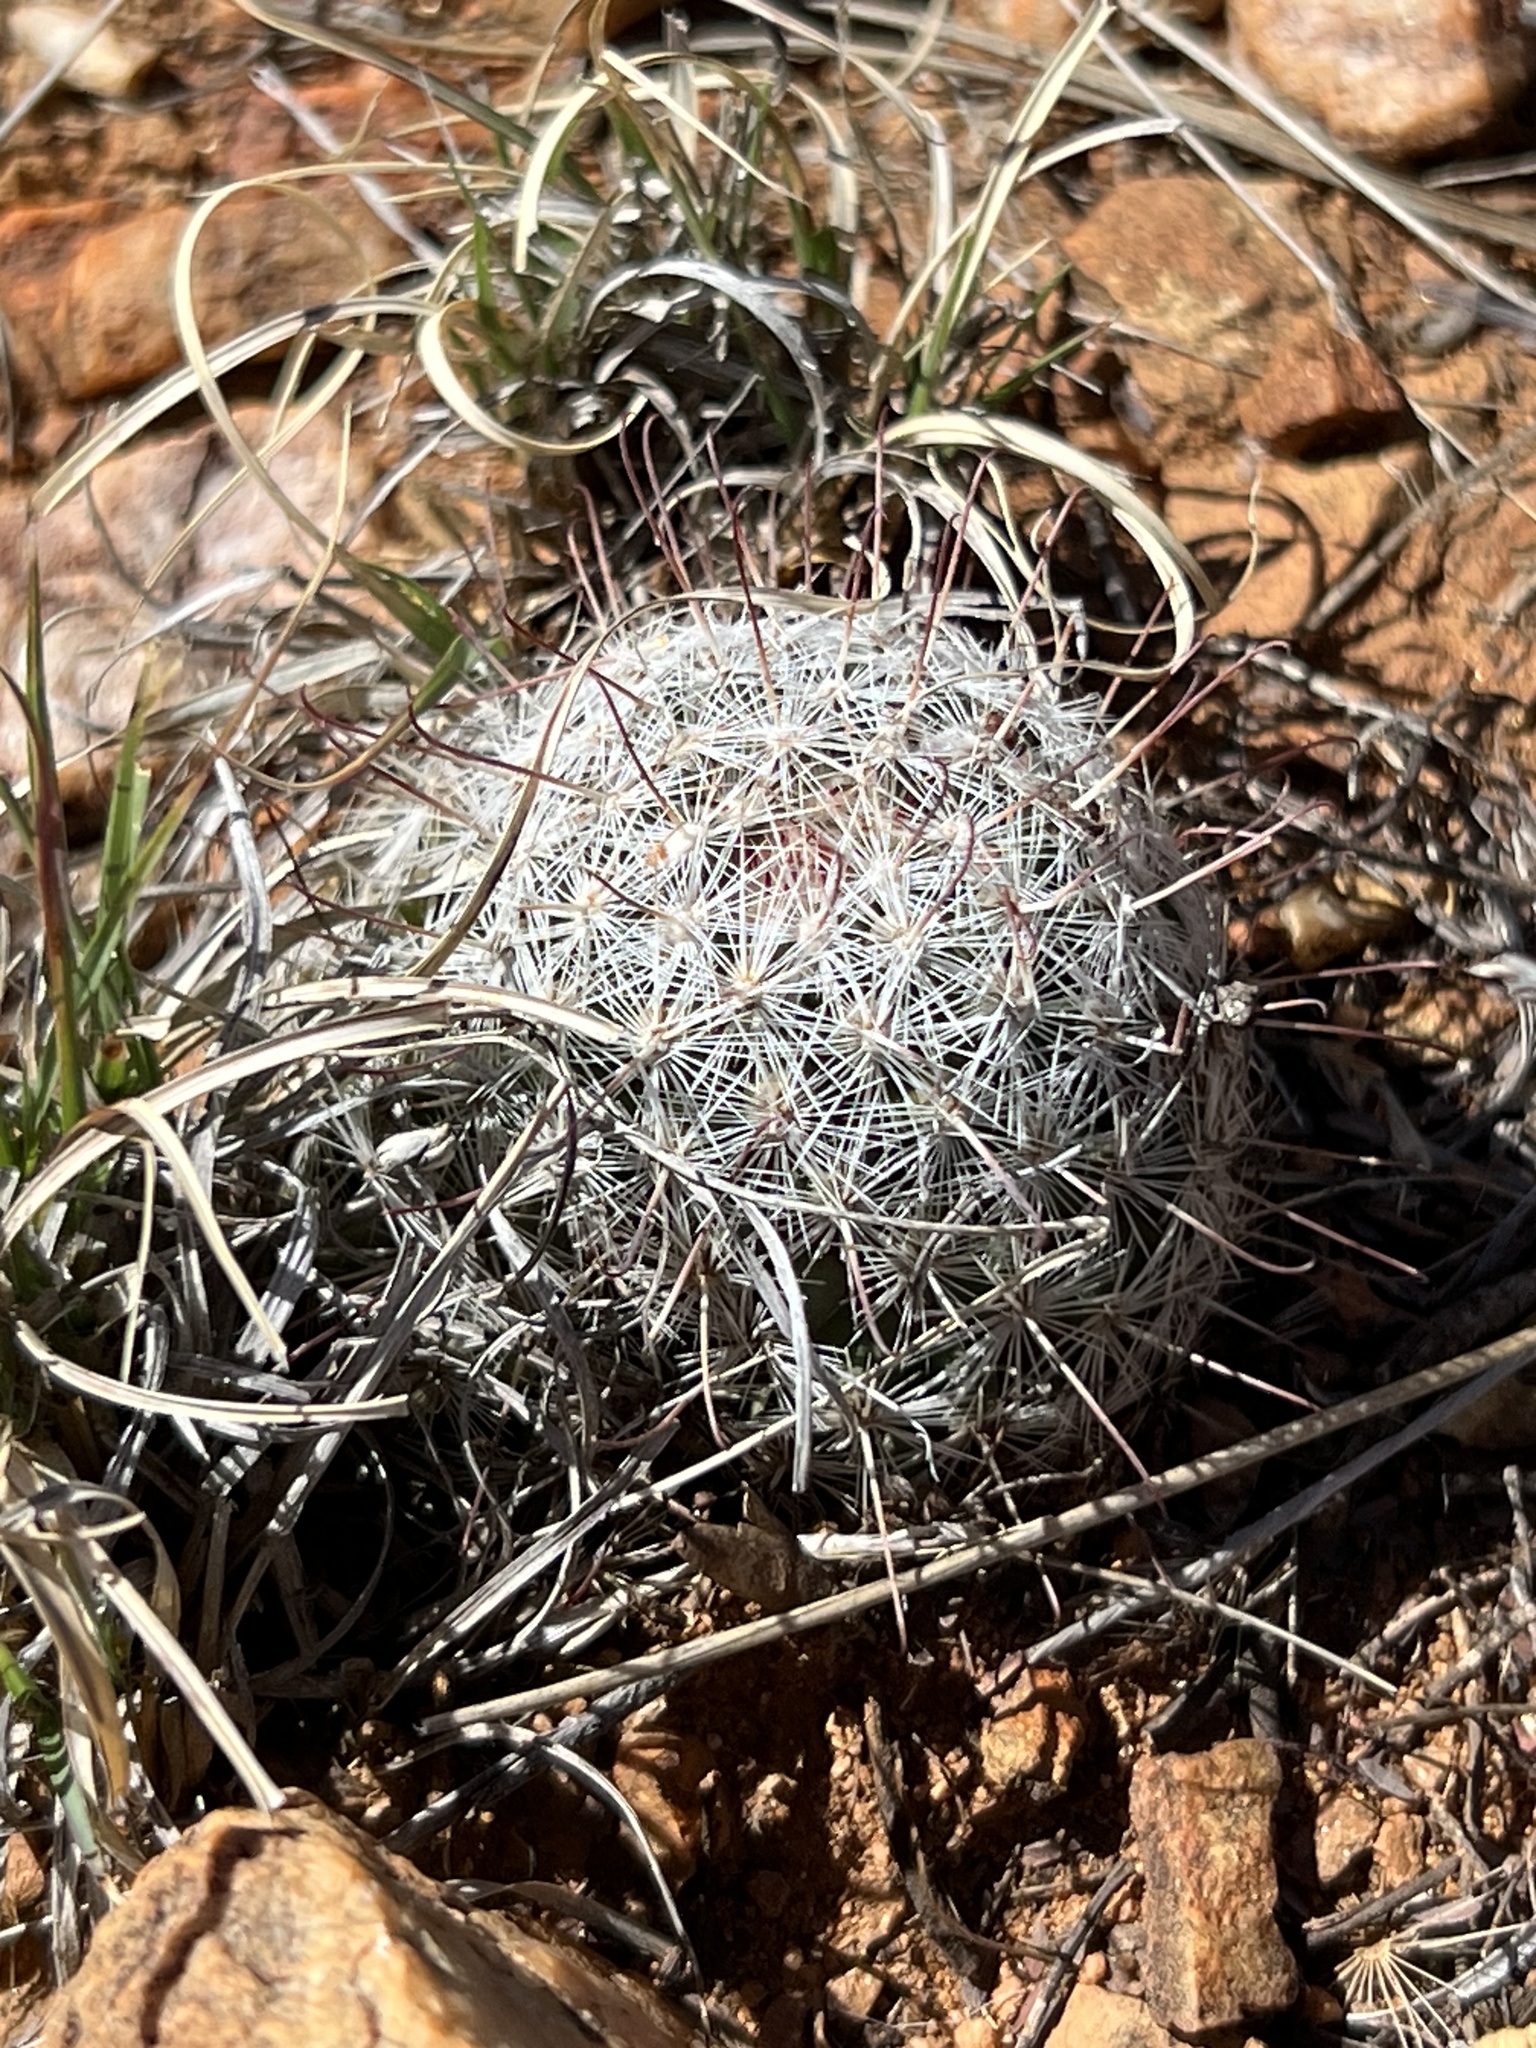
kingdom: Plantae
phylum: Tracheophyta
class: Magnoliopsida
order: Caryophyllales
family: Cactaceae
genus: Cochemiea
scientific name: Cochemiea grahamii
